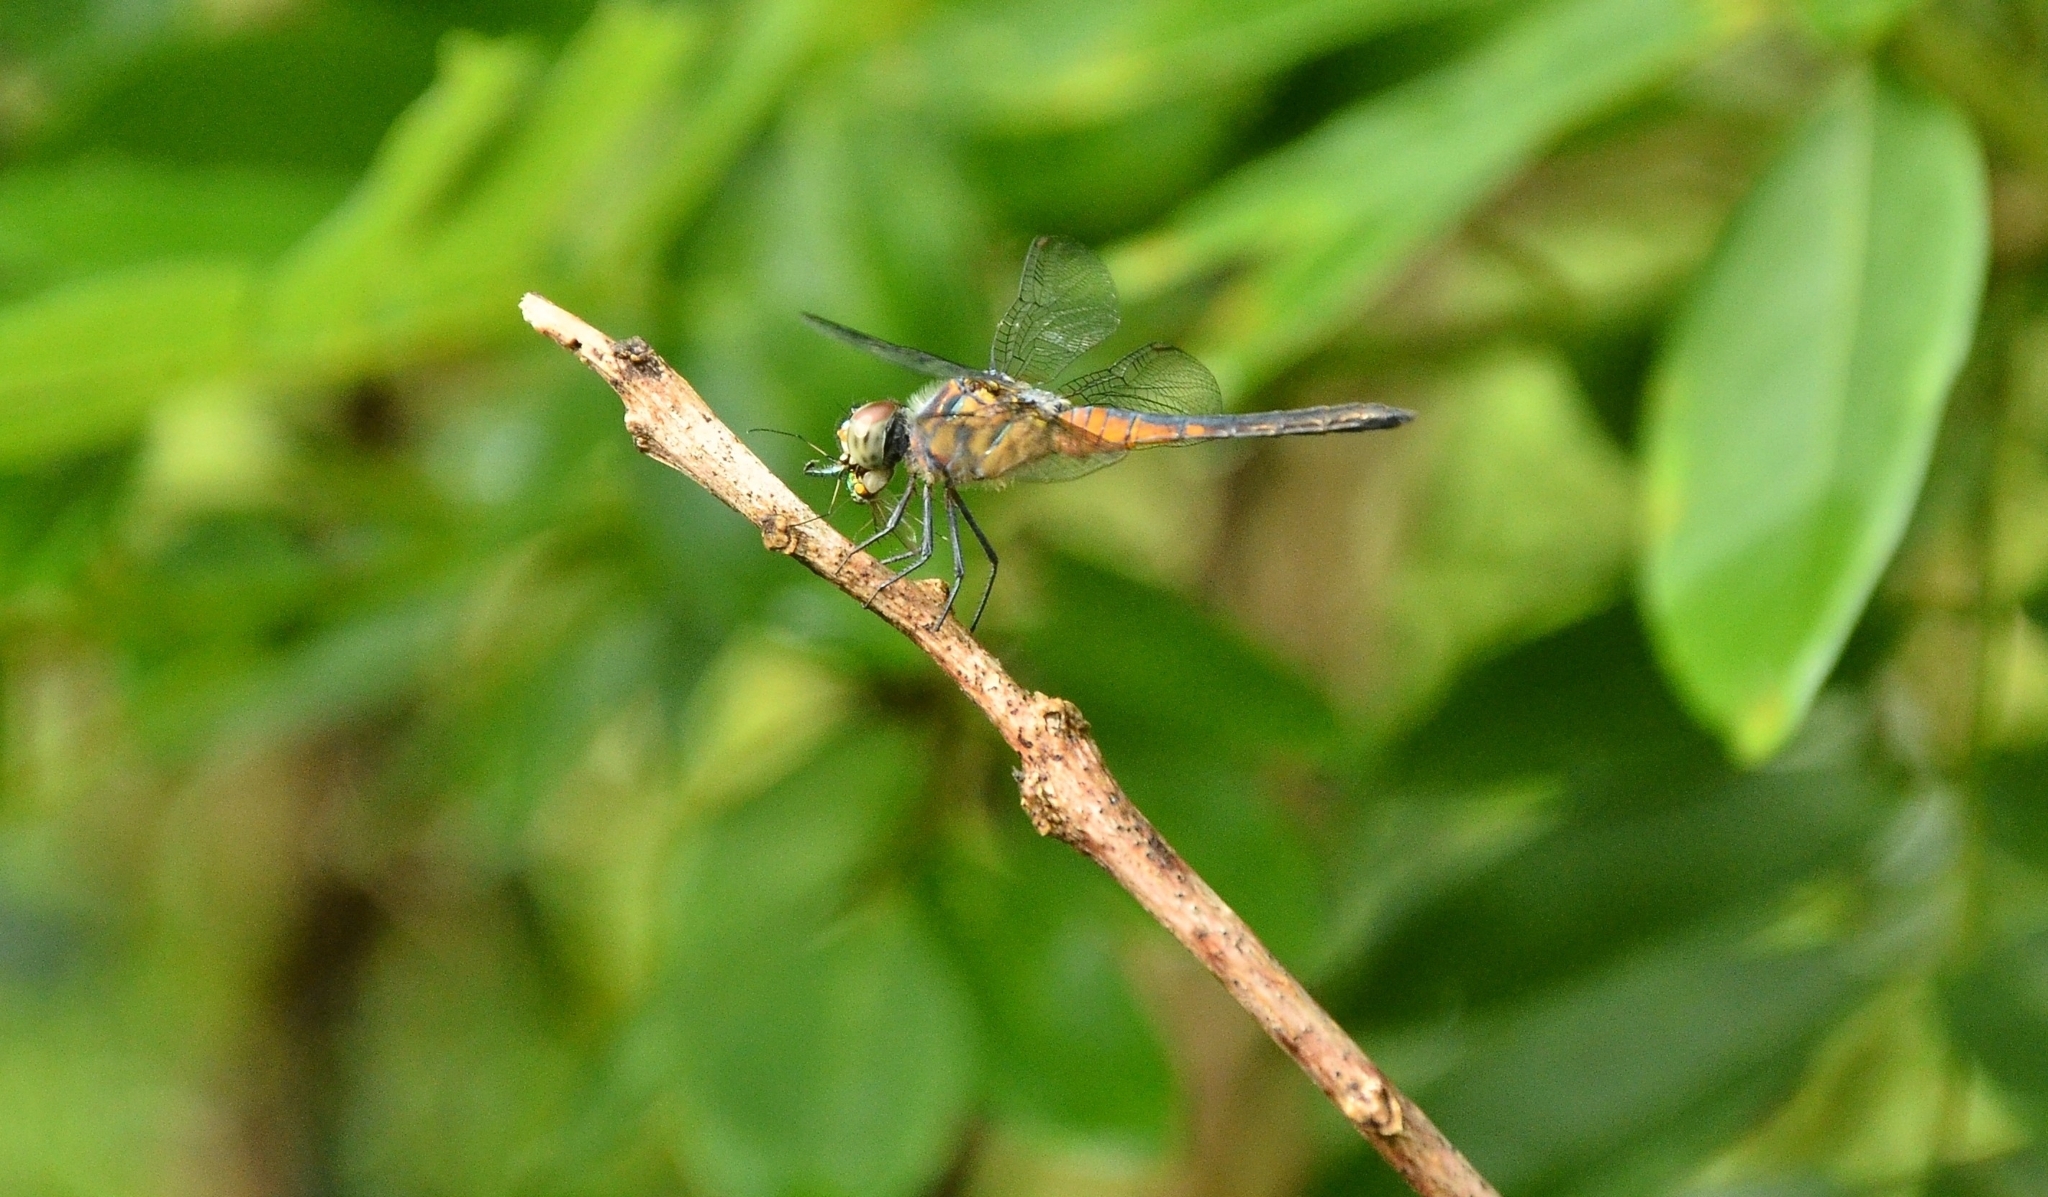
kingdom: Animalia
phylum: Arthropoda
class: Insecta
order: Odonata
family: Libellulidae
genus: Brachydiplax
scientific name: Brachydiplax chalybea
